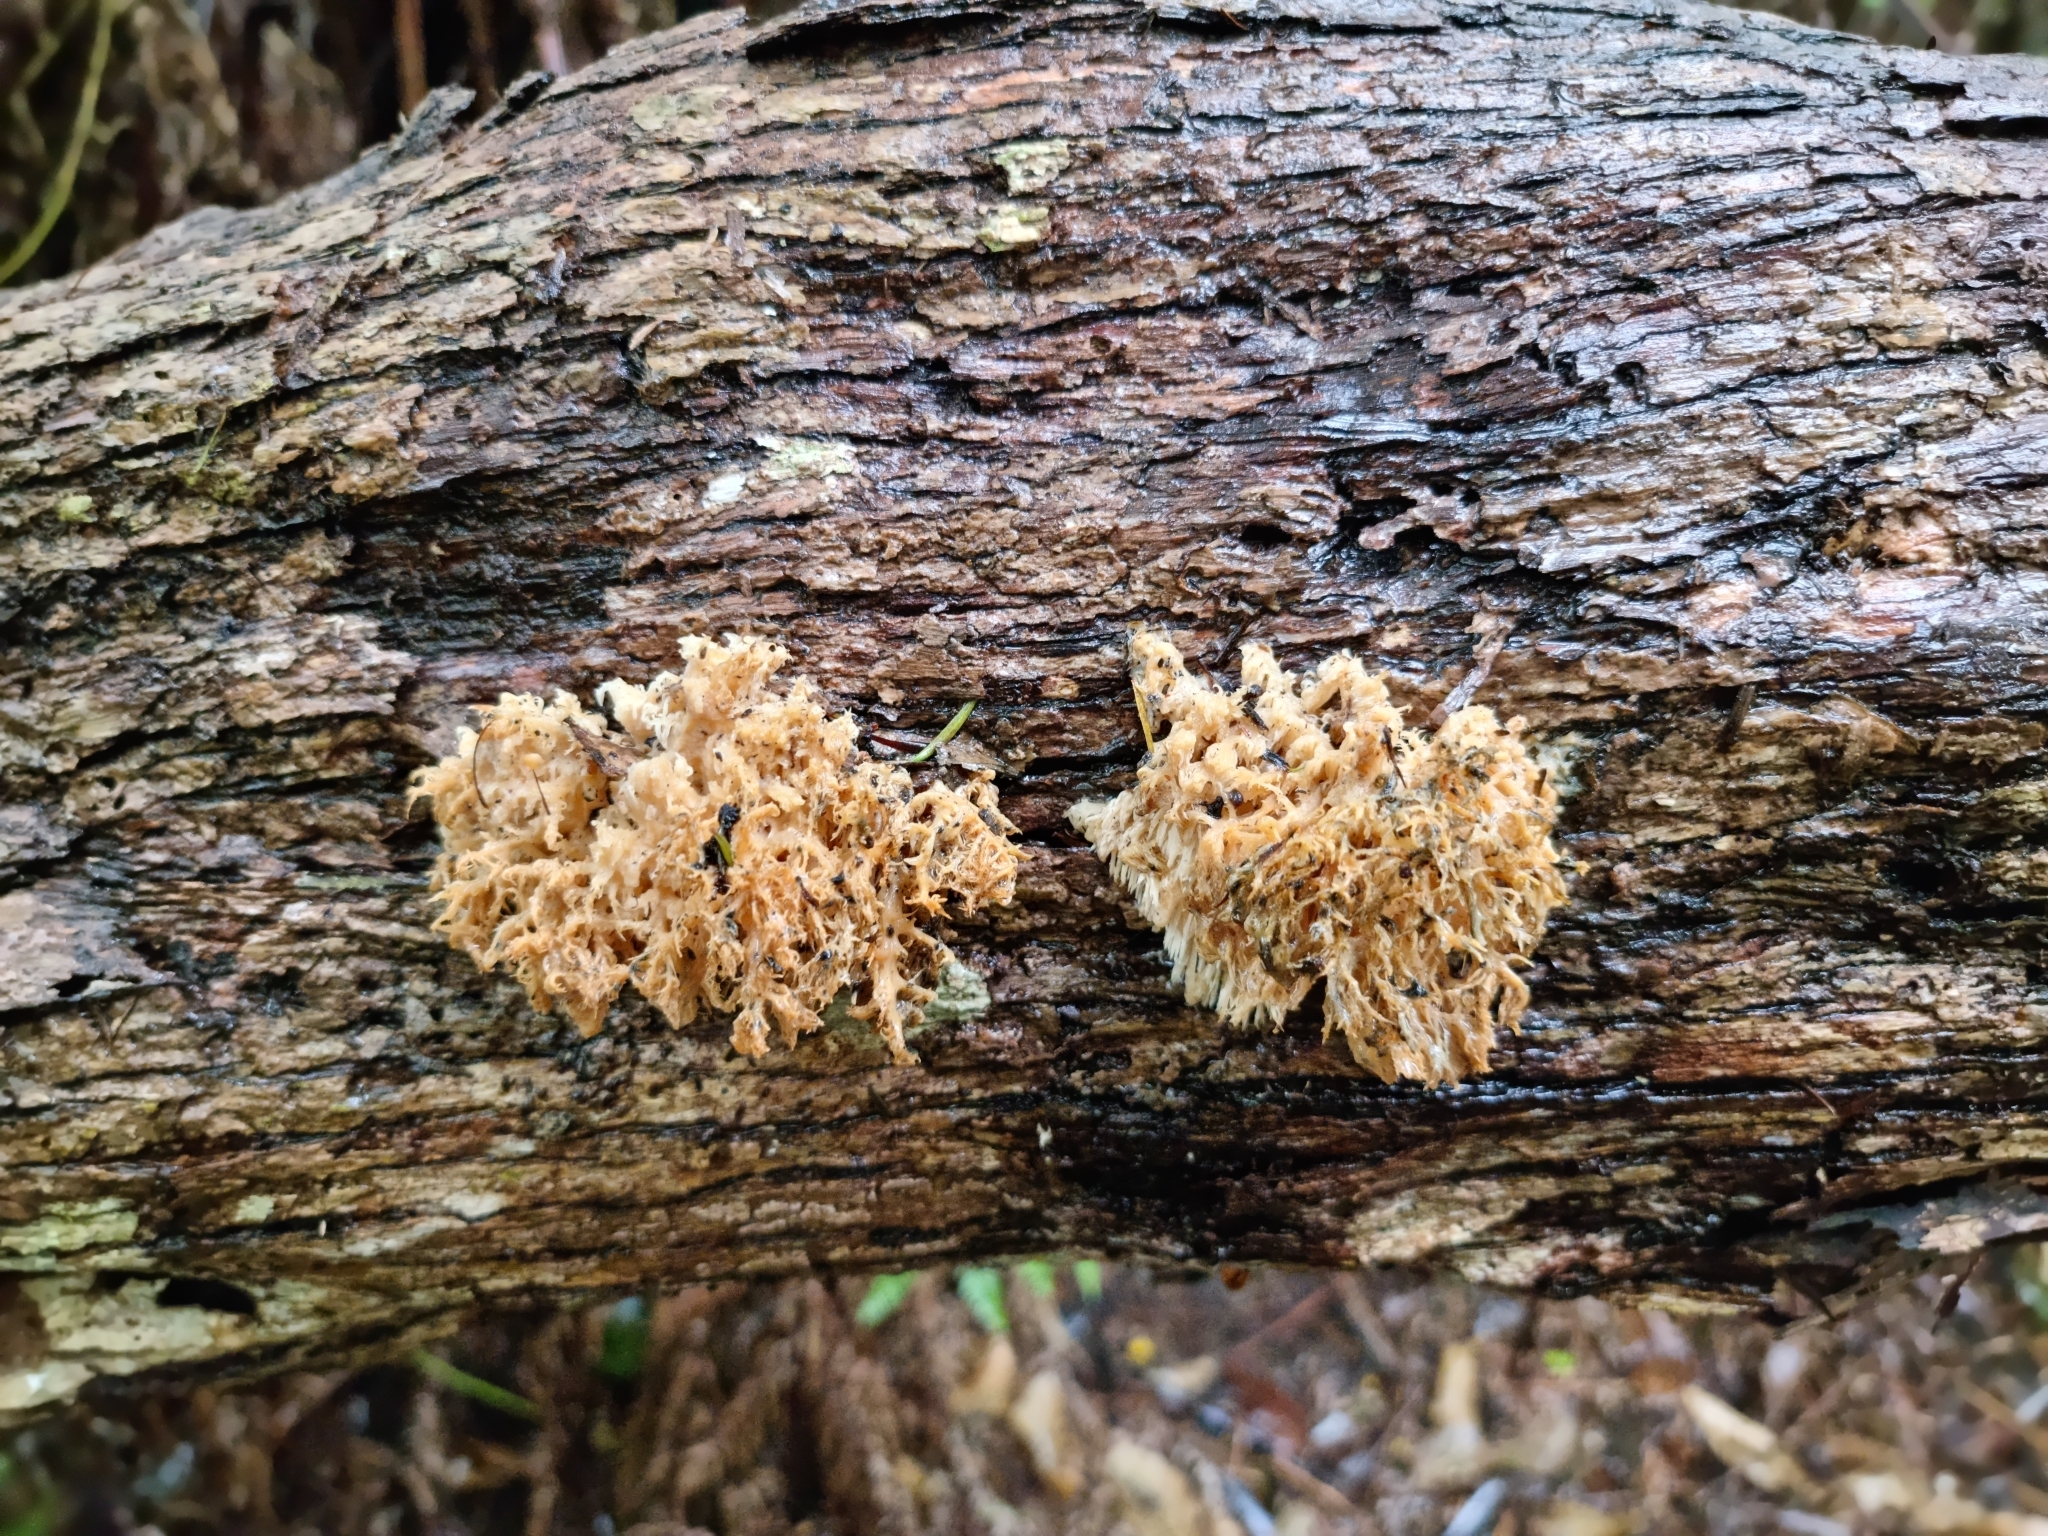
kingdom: Fungi
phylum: Basidiomycota
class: Agaricomycetes
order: Russulales
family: Hericiaceae
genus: Hericium
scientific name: Hericium novae-zealandiae
